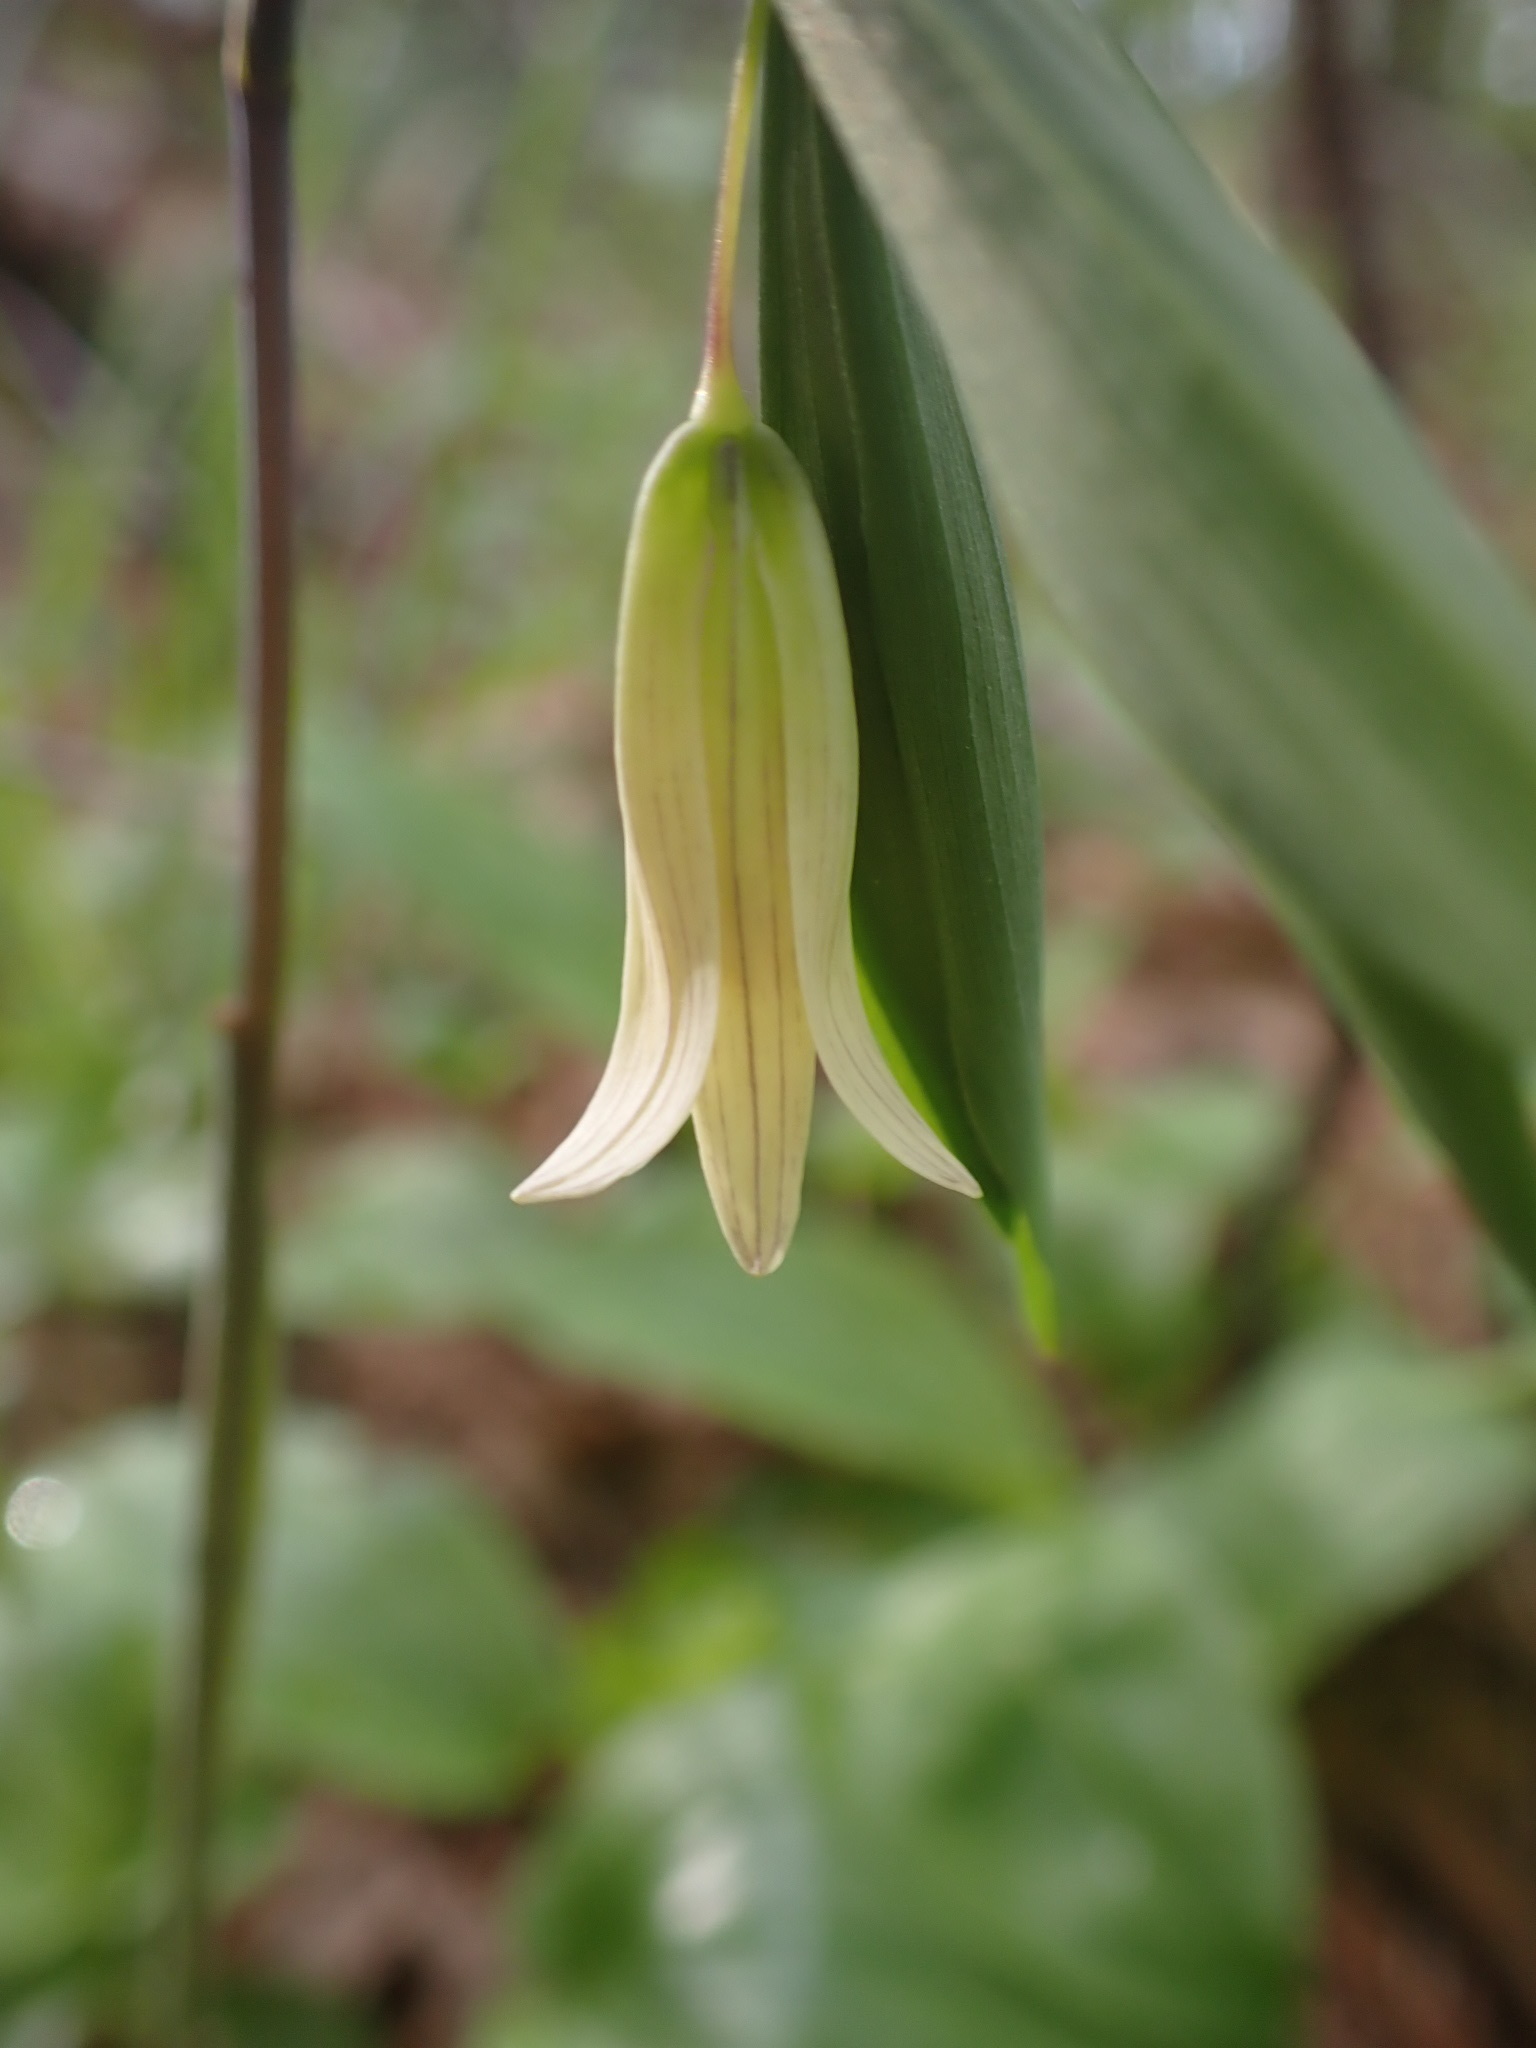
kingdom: Plantae
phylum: Tracheophyta
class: Liliopsida
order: Liliales
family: Colchicaceae
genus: Uvularia
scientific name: Uvularia sessilifolia
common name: Straw-lily
